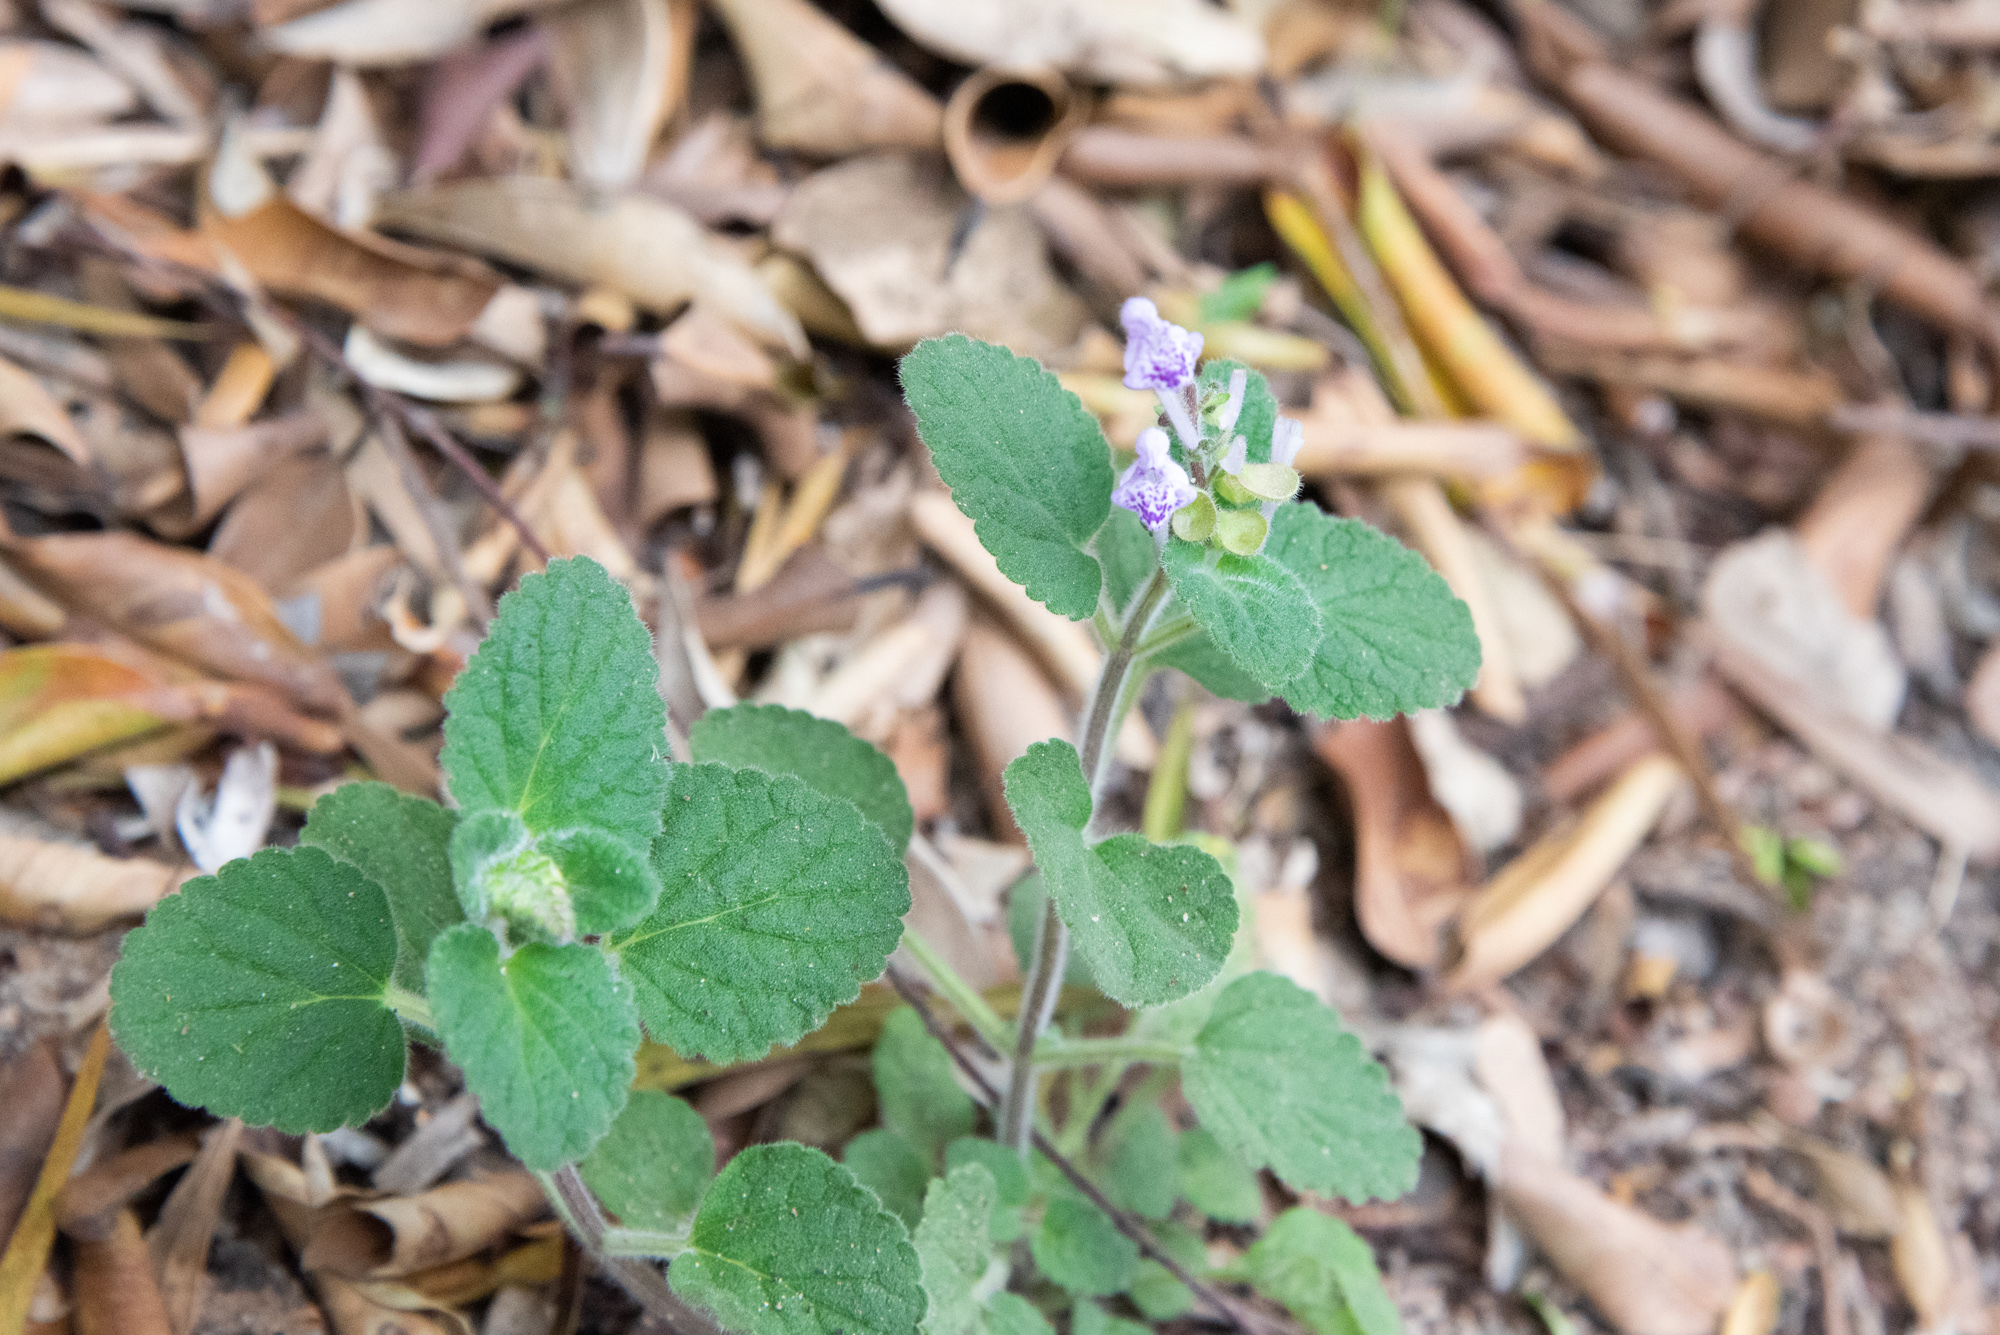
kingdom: Plantae
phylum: Tracheophyta
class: Magnoliopsida
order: Lamiales
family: Lamiaceae
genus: Scutellaria
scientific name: Scutellaria indica
